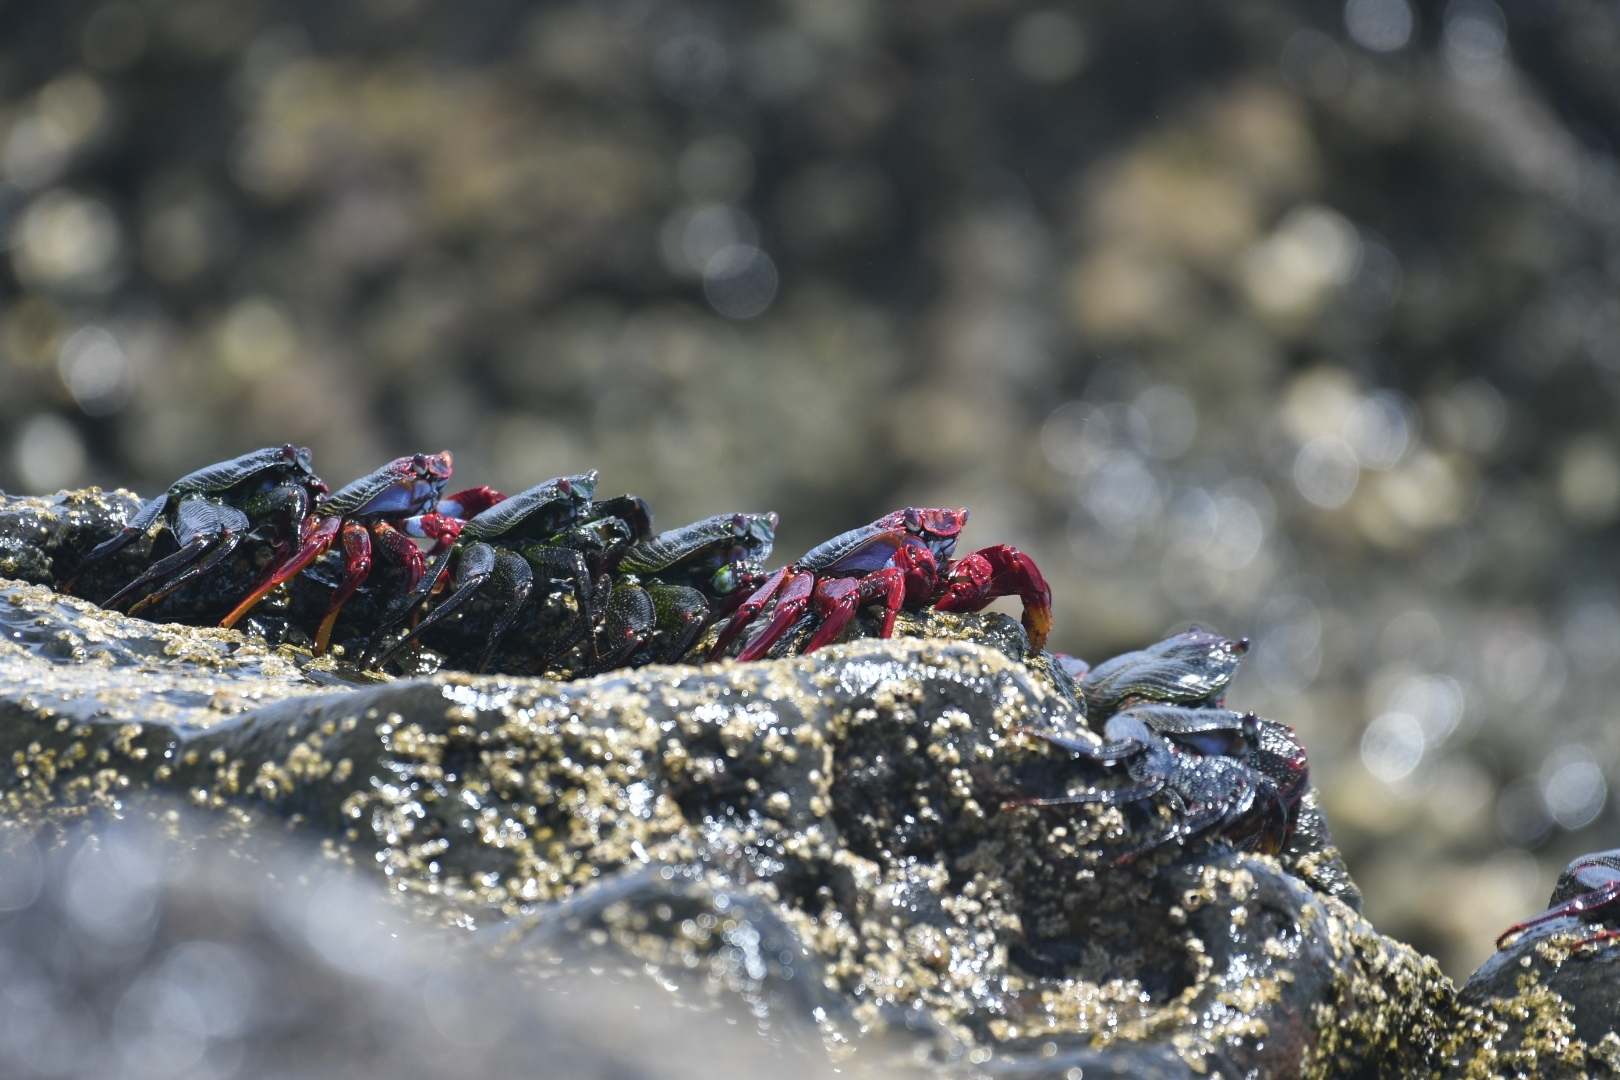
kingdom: Animalia
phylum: Arthropoda
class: Malacostraca
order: Decapoda
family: Grapsidae
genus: Grapsus
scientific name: Grapsus adscensionis
